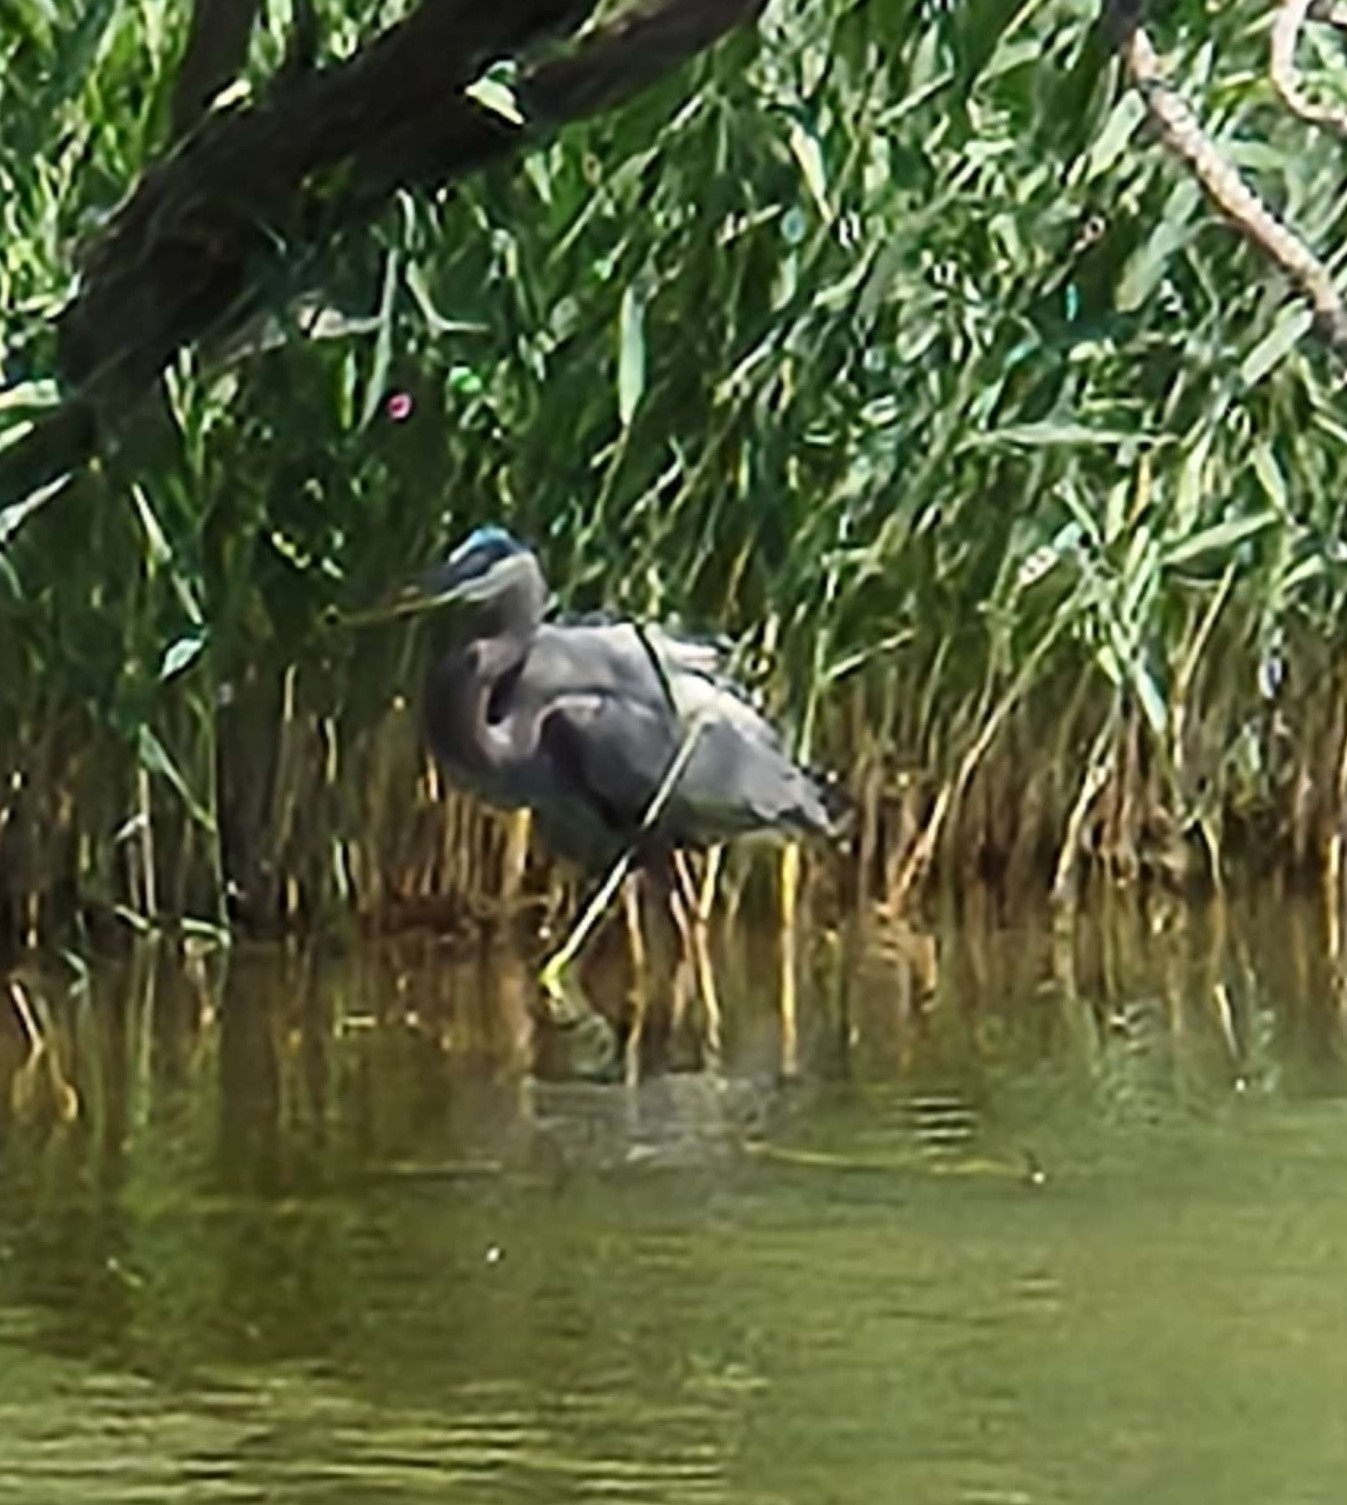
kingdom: Animalia
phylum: Chordata
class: Aves
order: Pelecaniformes
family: Ardeidae
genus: Ardea
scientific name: Ardea herodias
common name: Great blue heron
